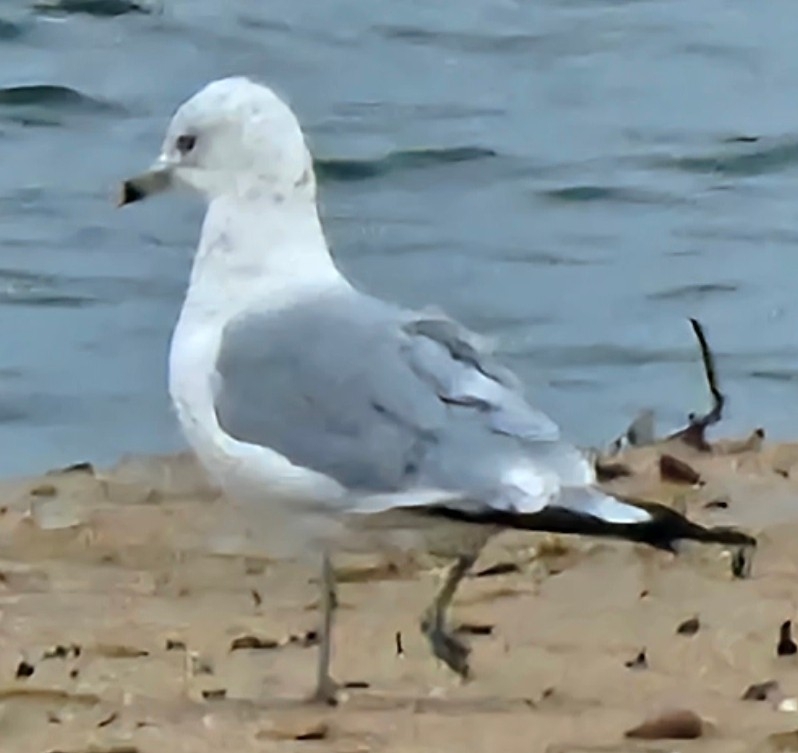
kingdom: Animalia
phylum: Chordata
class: Aves
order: Charadriiformes
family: Laridae
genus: Larus
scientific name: Larus delawarensis
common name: Ring-billed gull
